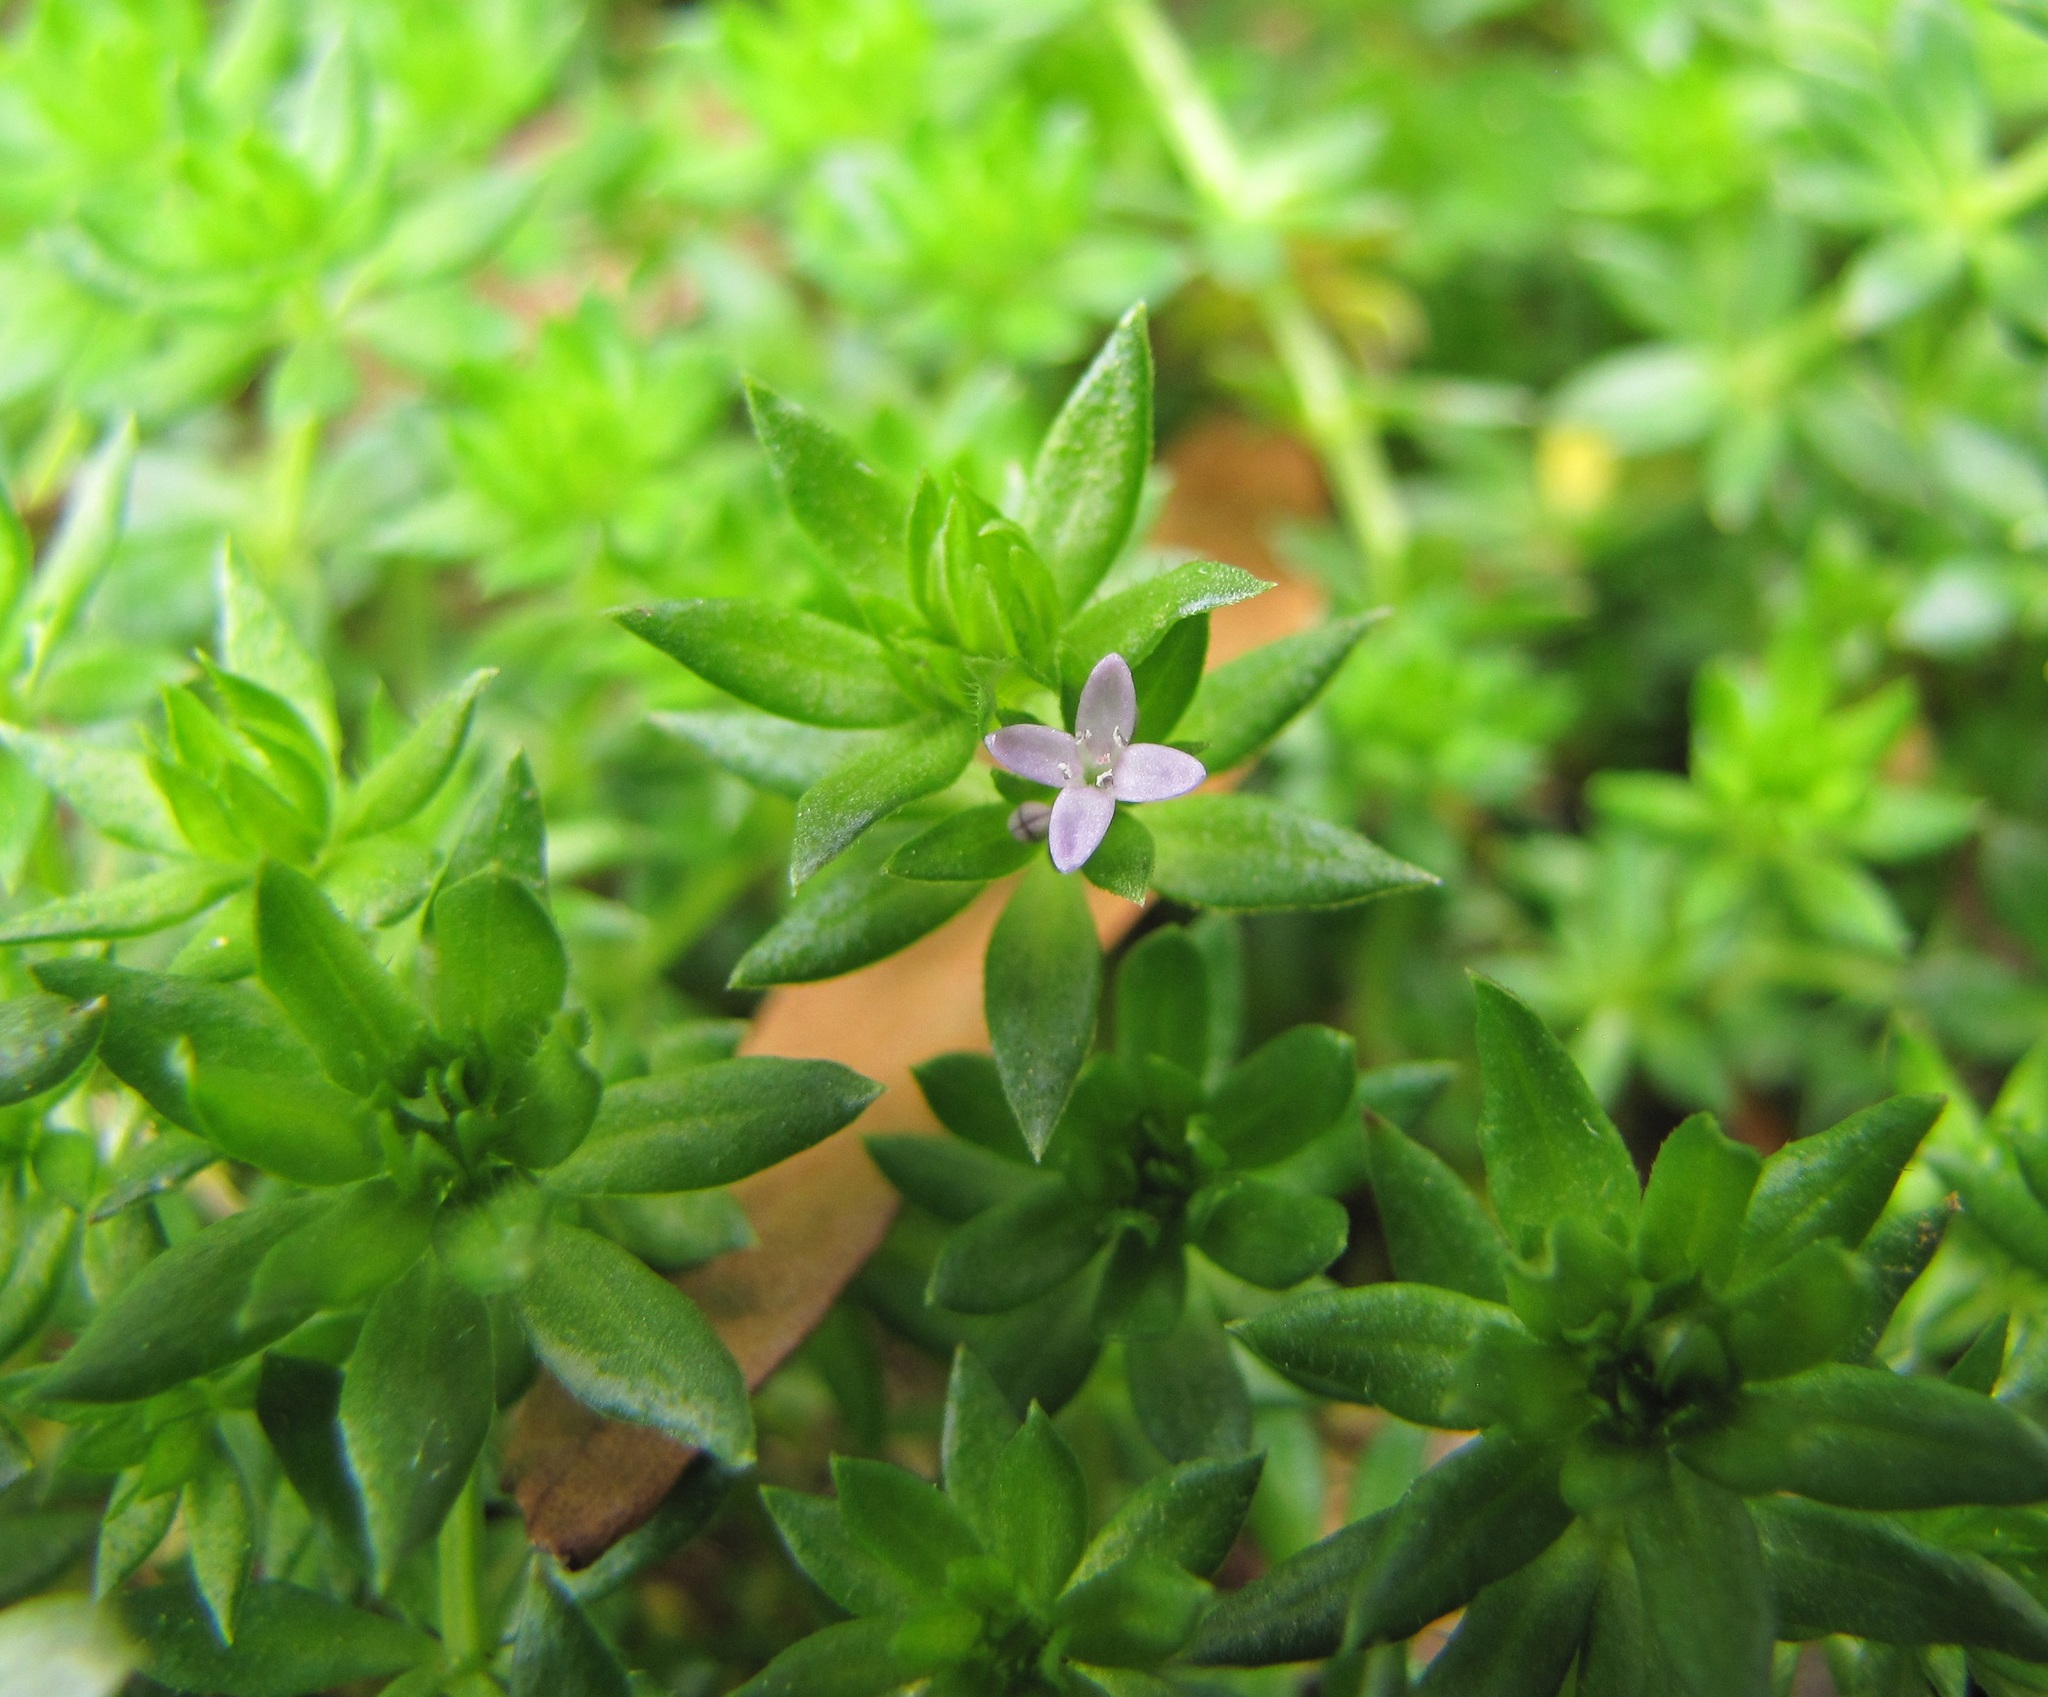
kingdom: Plantae
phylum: Tracheophyta
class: Magnoliopsida
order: Gentianales
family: Rubiaceae
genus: Sherardia
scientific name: Sherardia arvensis
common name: Field madder
